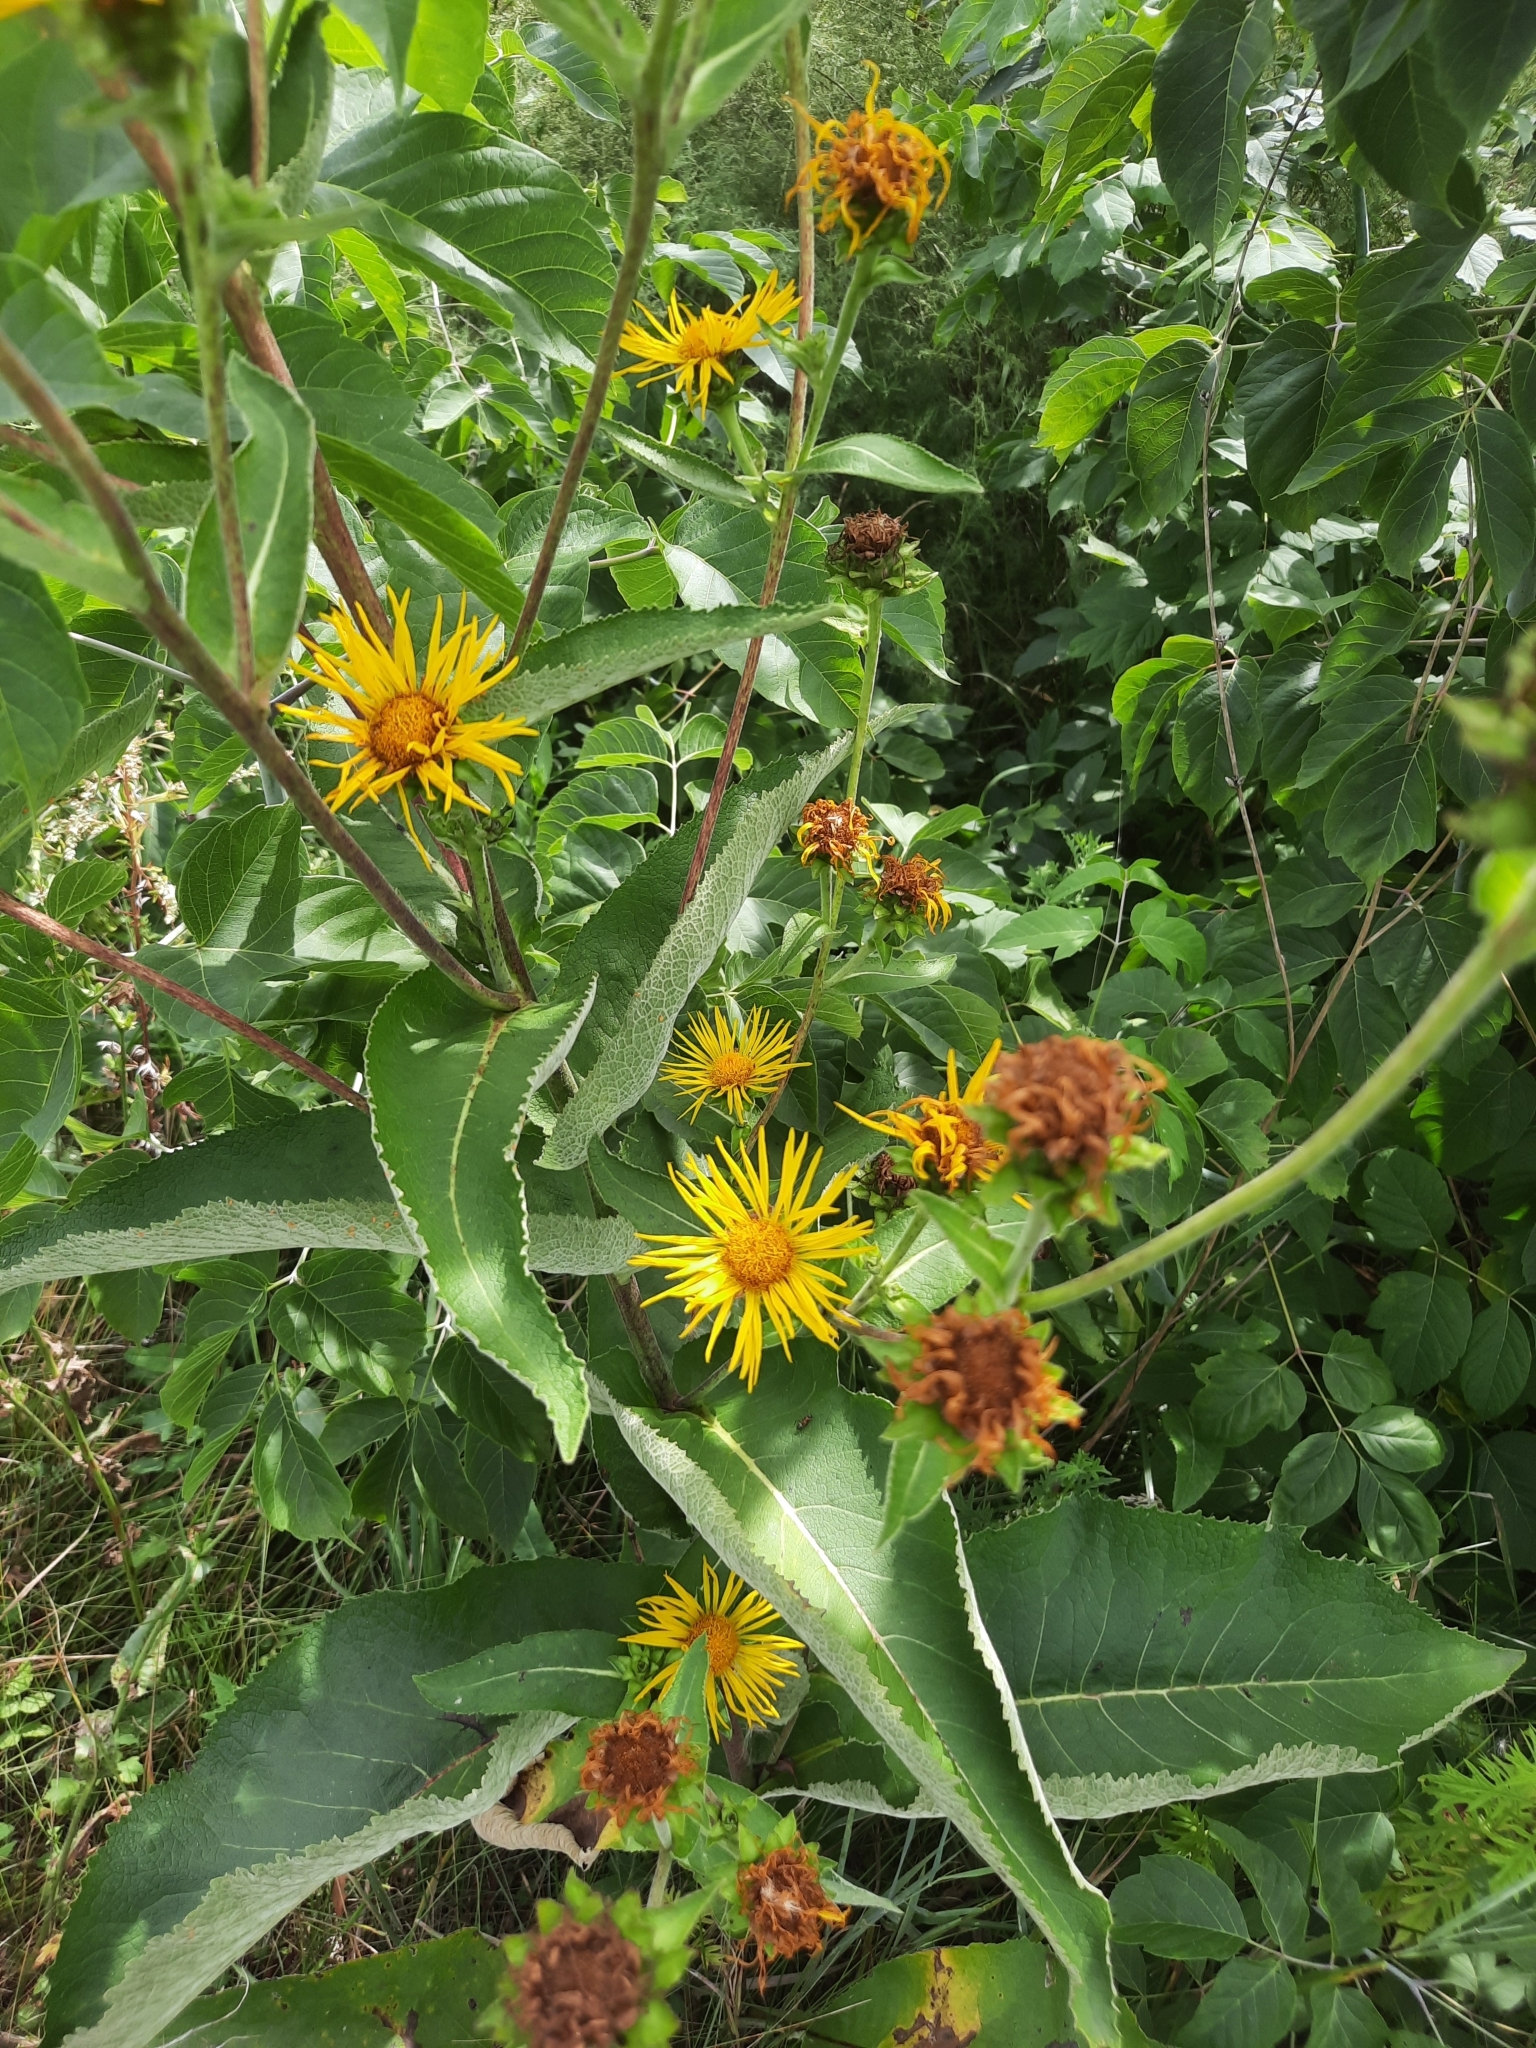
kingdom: Plantae
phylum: Tracheophyta
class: Magnoliopsida
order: Asterales
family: Asteraceae
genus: Inula
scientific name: Inula helenium
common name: Elecampane
